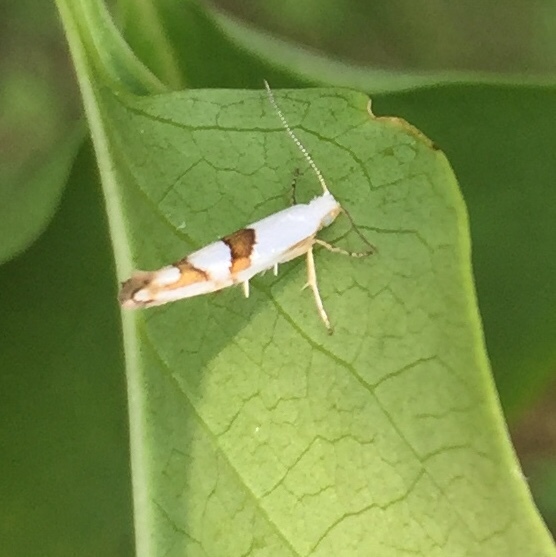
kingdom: Animalia
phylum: Arthropoda
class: Insecta
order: Lepidoptera
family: Argyresthiidae
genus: Argyresthia
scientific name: Argyresthia oreasella
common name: Cherry shoot borer moth
